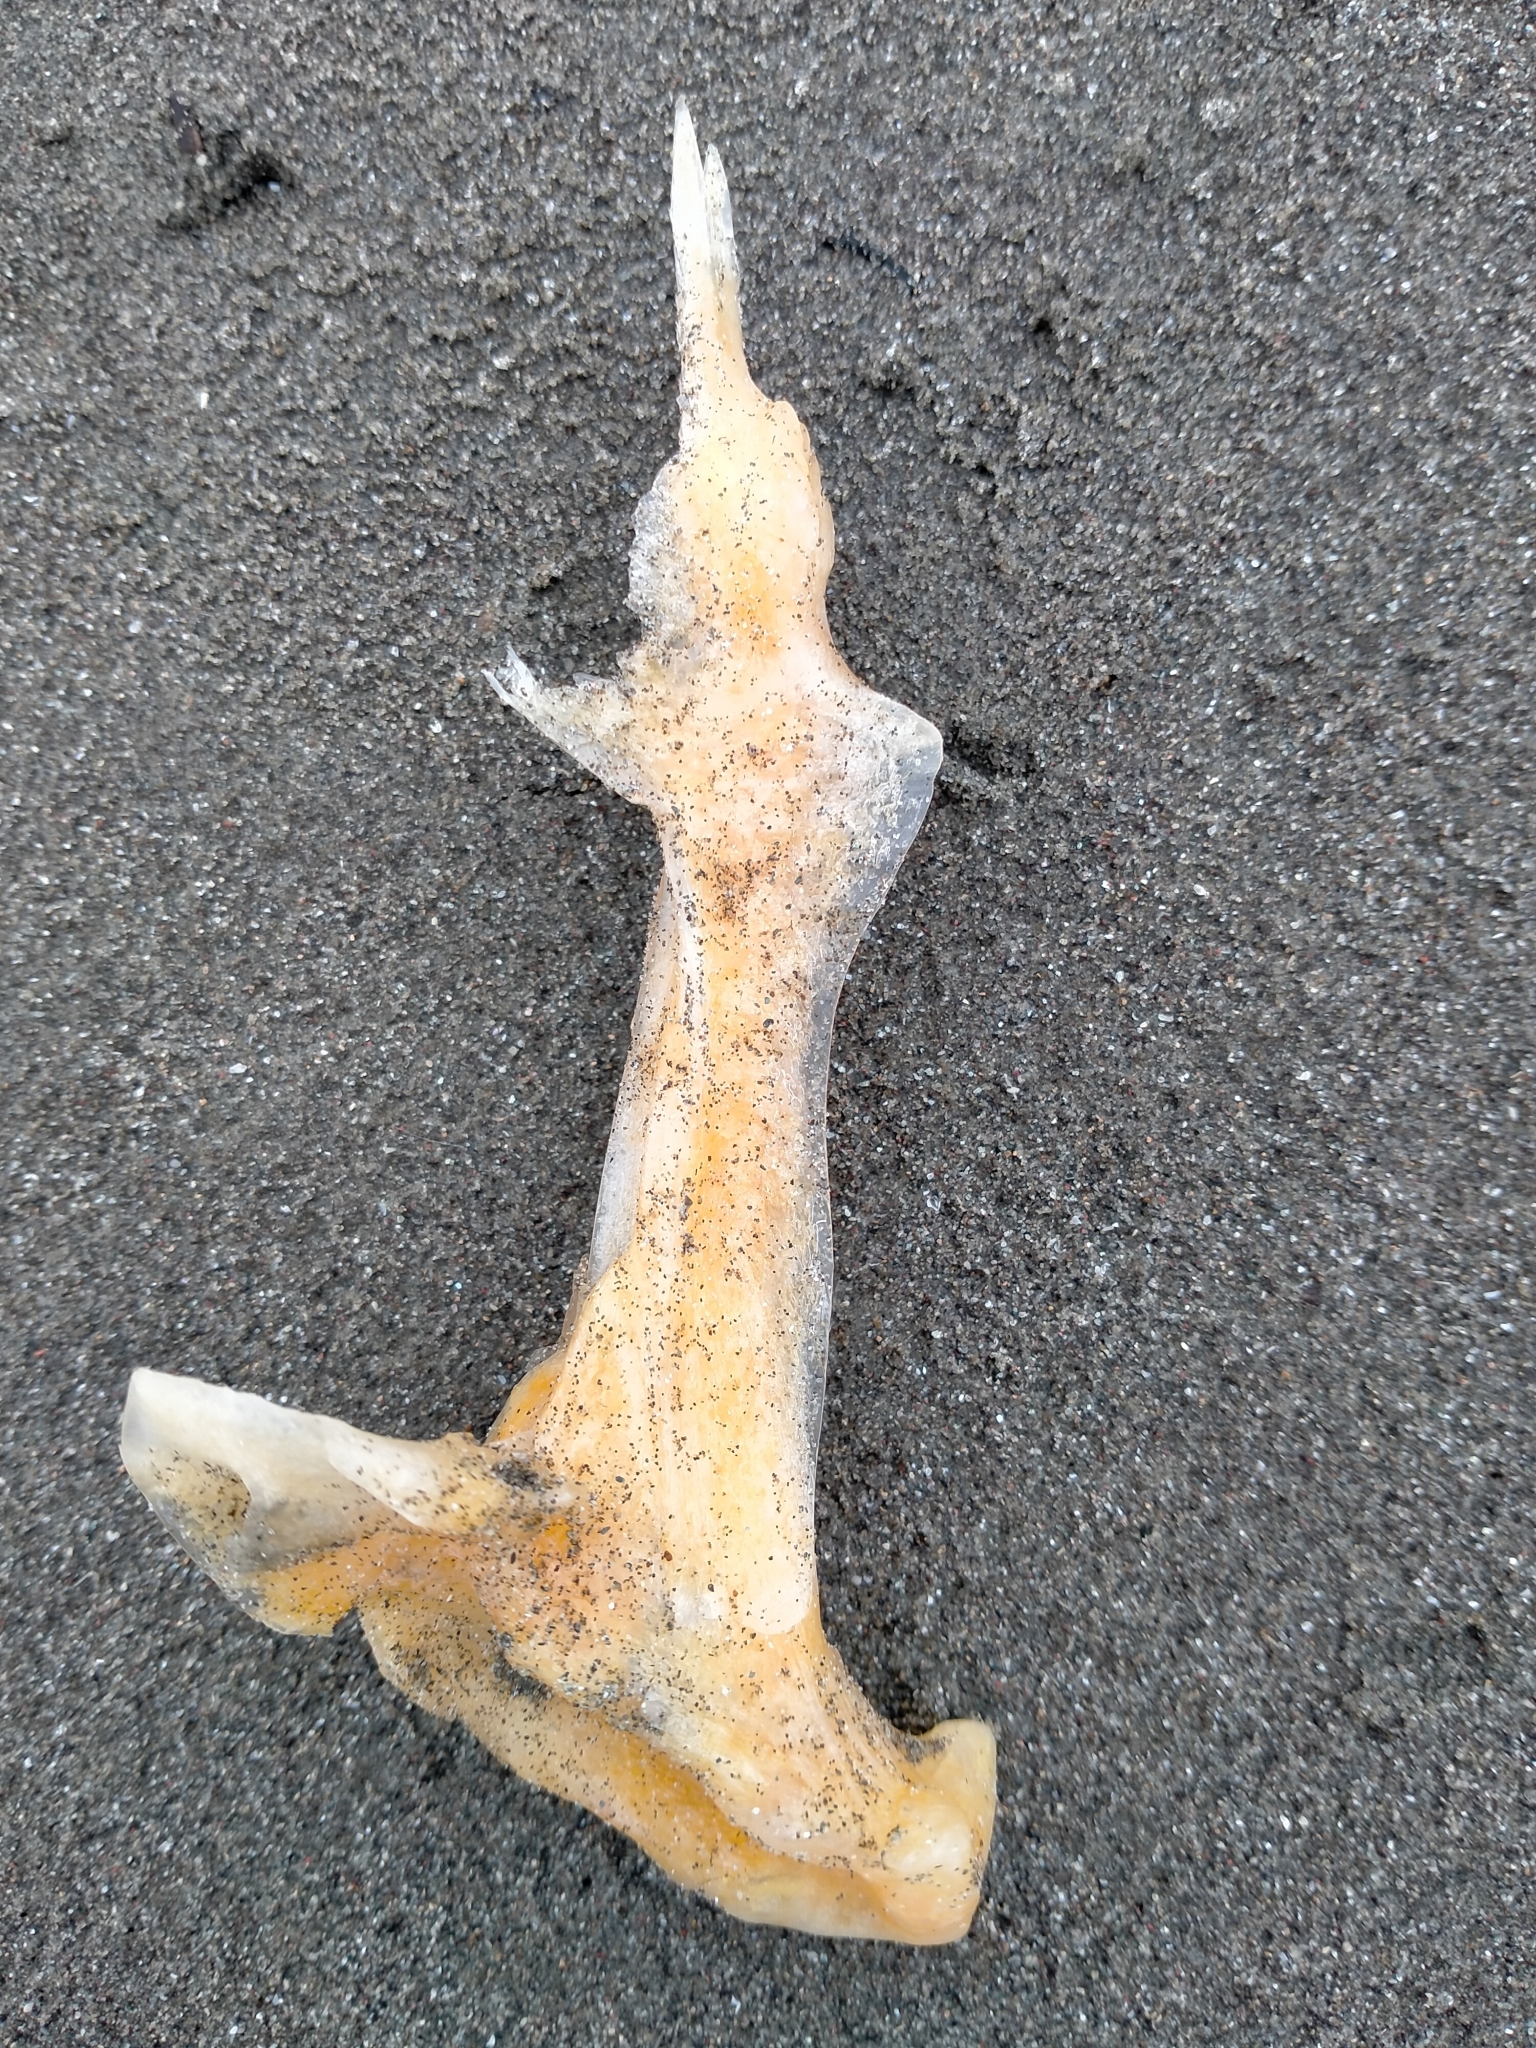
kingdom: Animalia
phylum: Chordata
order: Perciformes
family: Sparidae
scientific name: Sparidae
